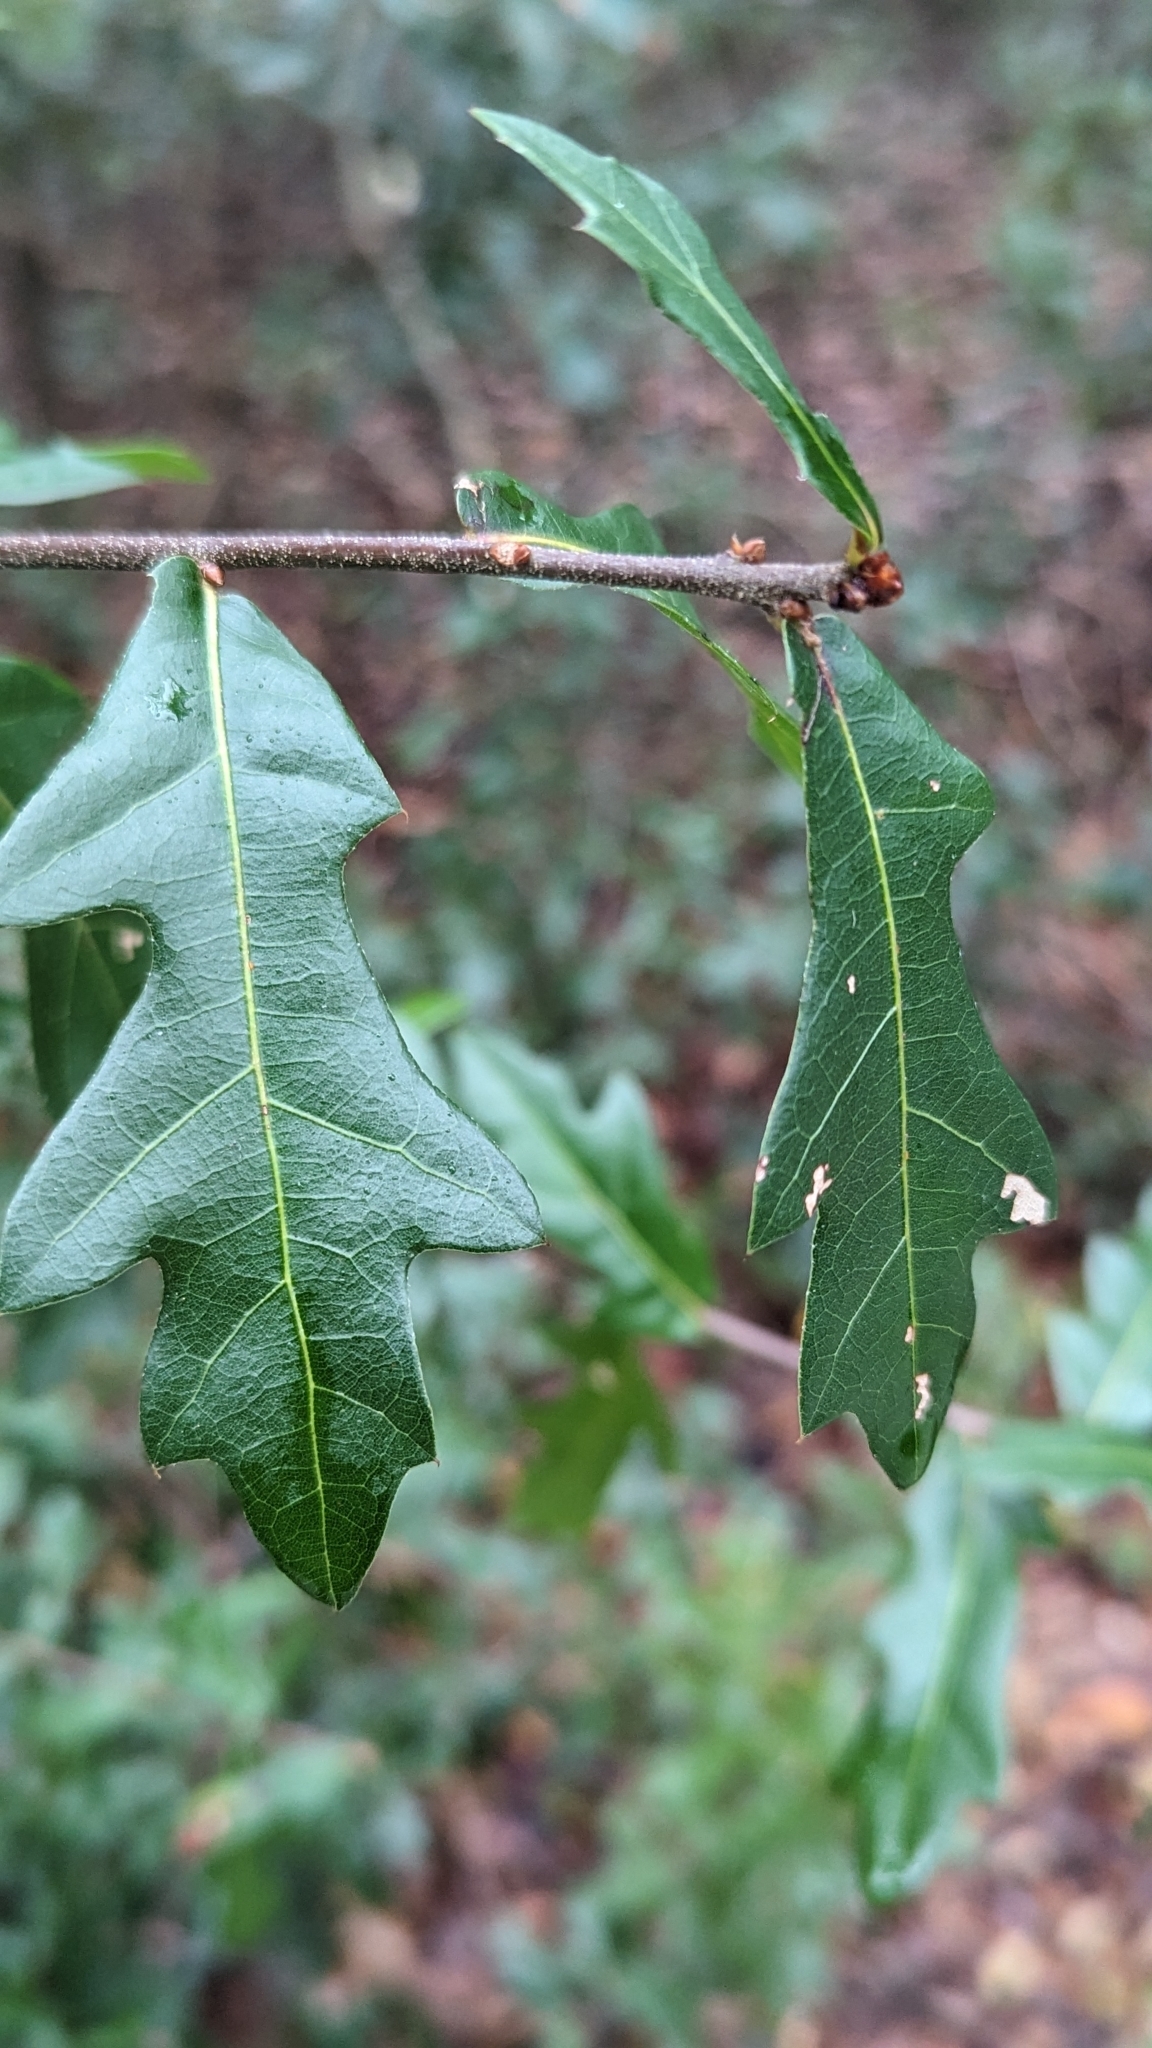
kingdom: Plantae
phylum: Tracheophyta
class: Magnoliopsida
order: Fagales
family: Fagaceae
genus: Quercus
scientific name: Quercus hemisphaerica
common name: Darlington oak
